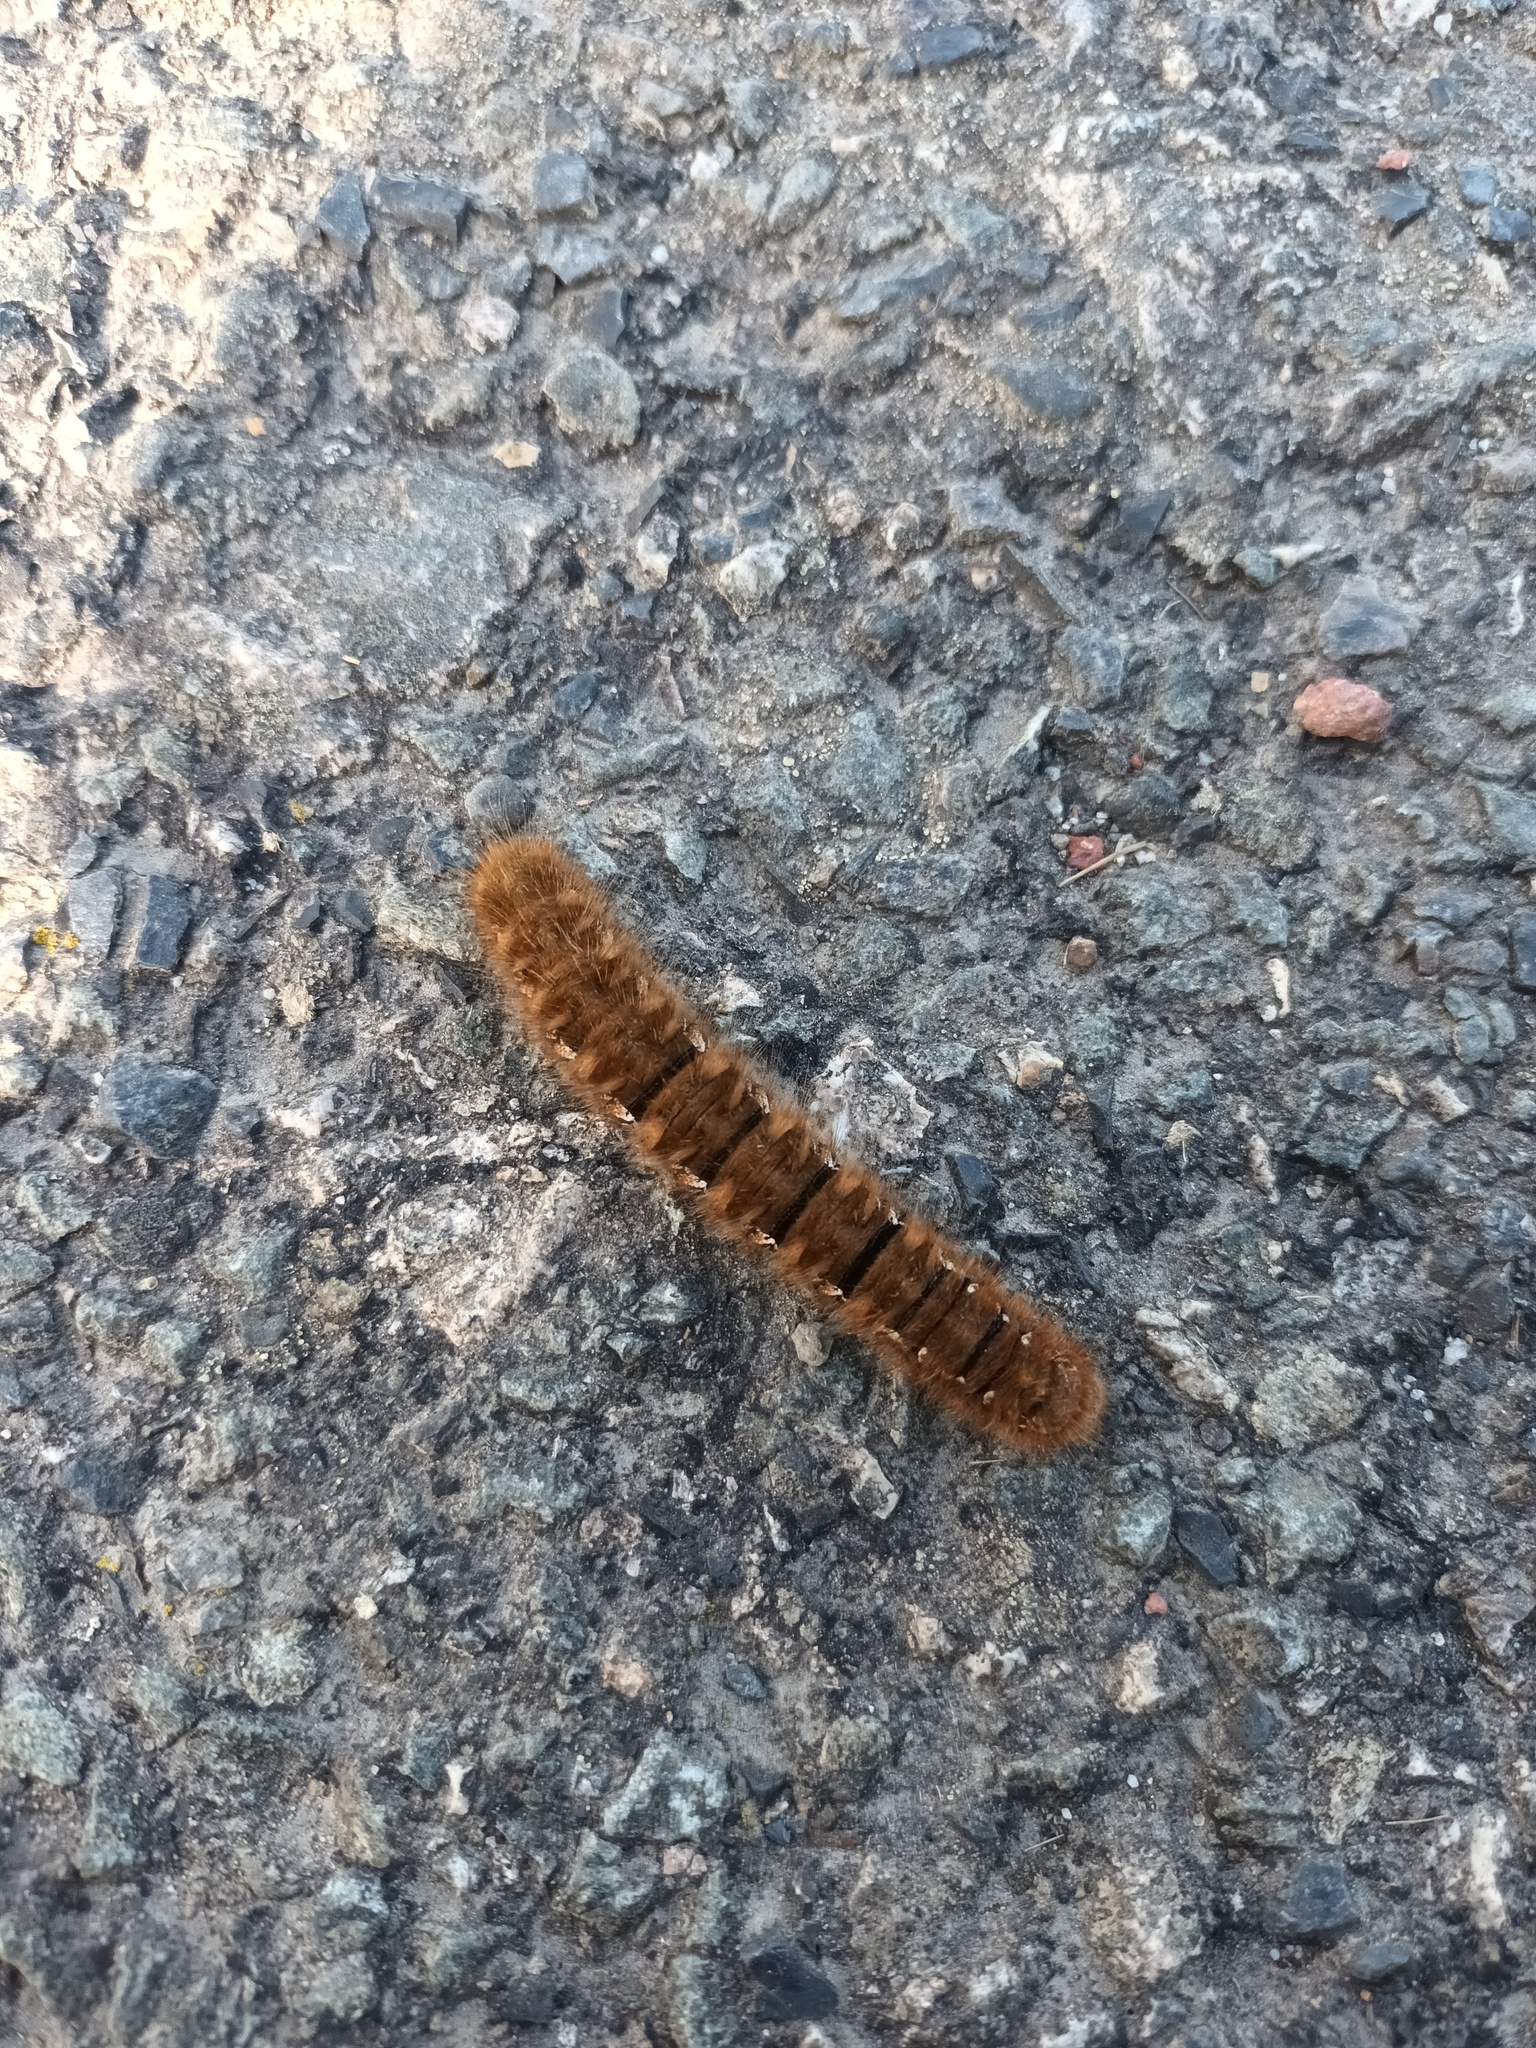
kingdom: Animalia
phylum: Arthropoda
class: Insecta
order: Lepidoptera
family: Lasiocampidae
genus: Lasiocampa
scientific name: Lasiocampa quercus
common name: Oak eggar
